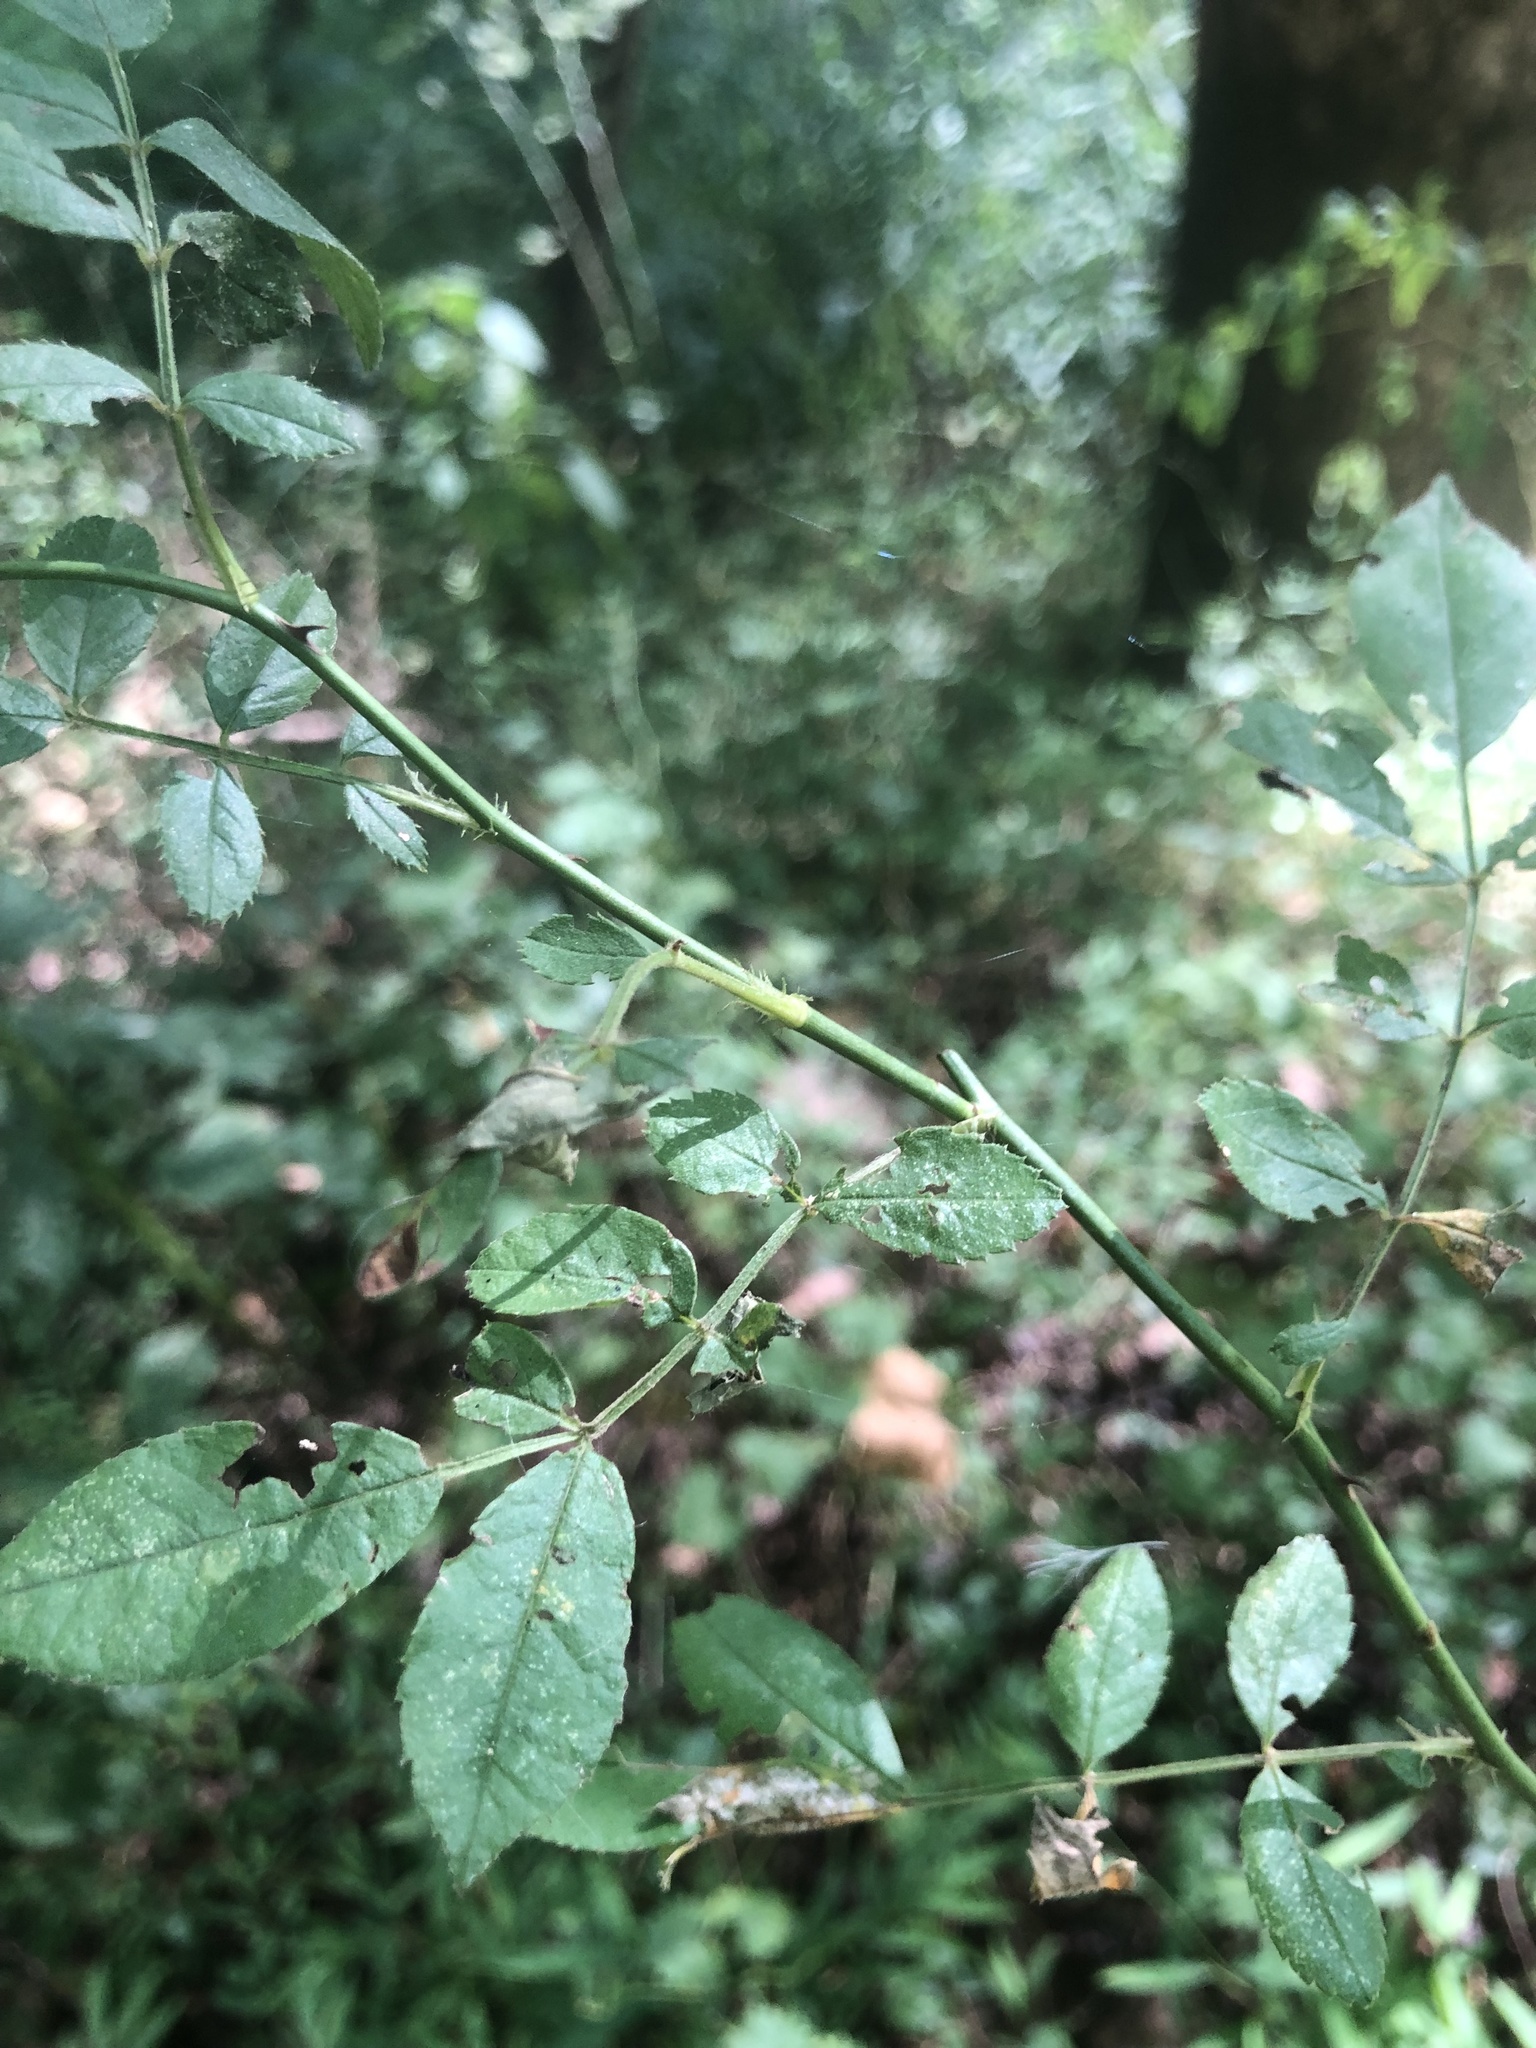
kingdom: Plantae
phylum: Tracheophyta
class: Magnoliopsida
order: Rosales
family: Rosaceae
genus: Rosa
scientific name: Rosa multiflora
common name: Multiflora rose
